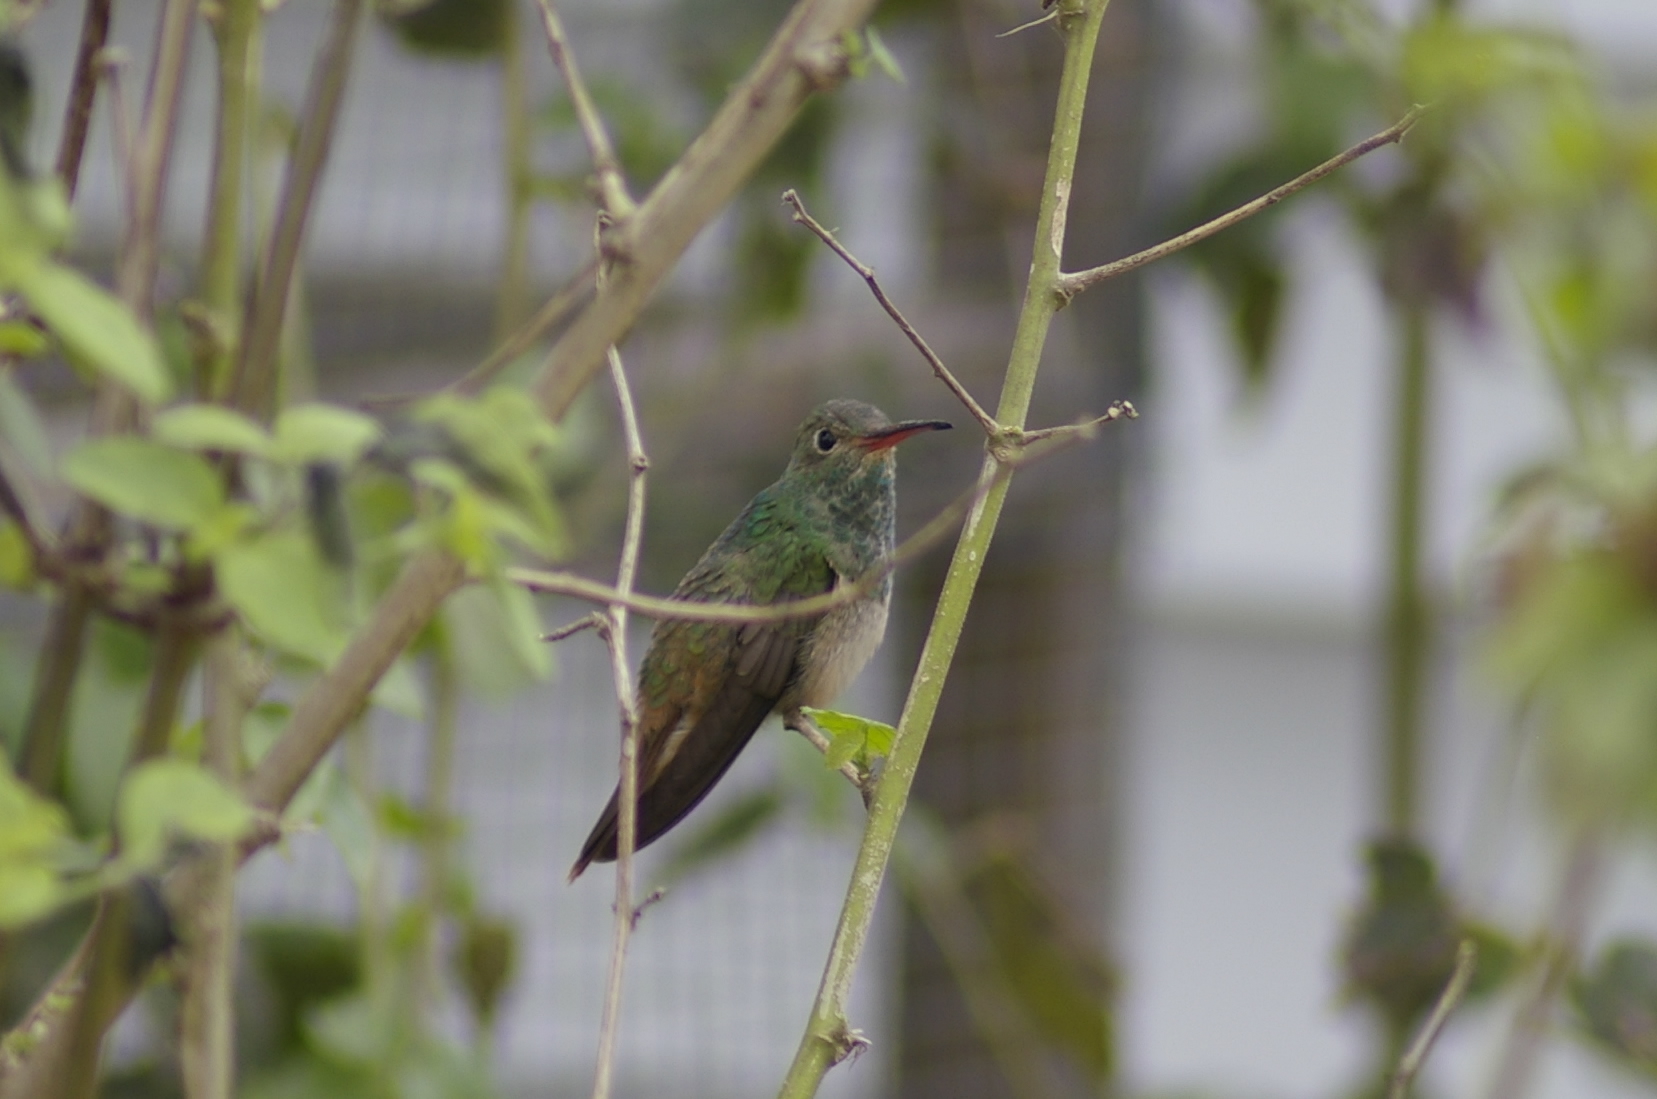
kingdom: Animalia
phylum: Chordata
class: Aves
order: Apodiformes
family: Trochilidae
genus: Amazilia
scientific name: Amazilia yucatanensis
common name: Buff-bellied hummingbird
